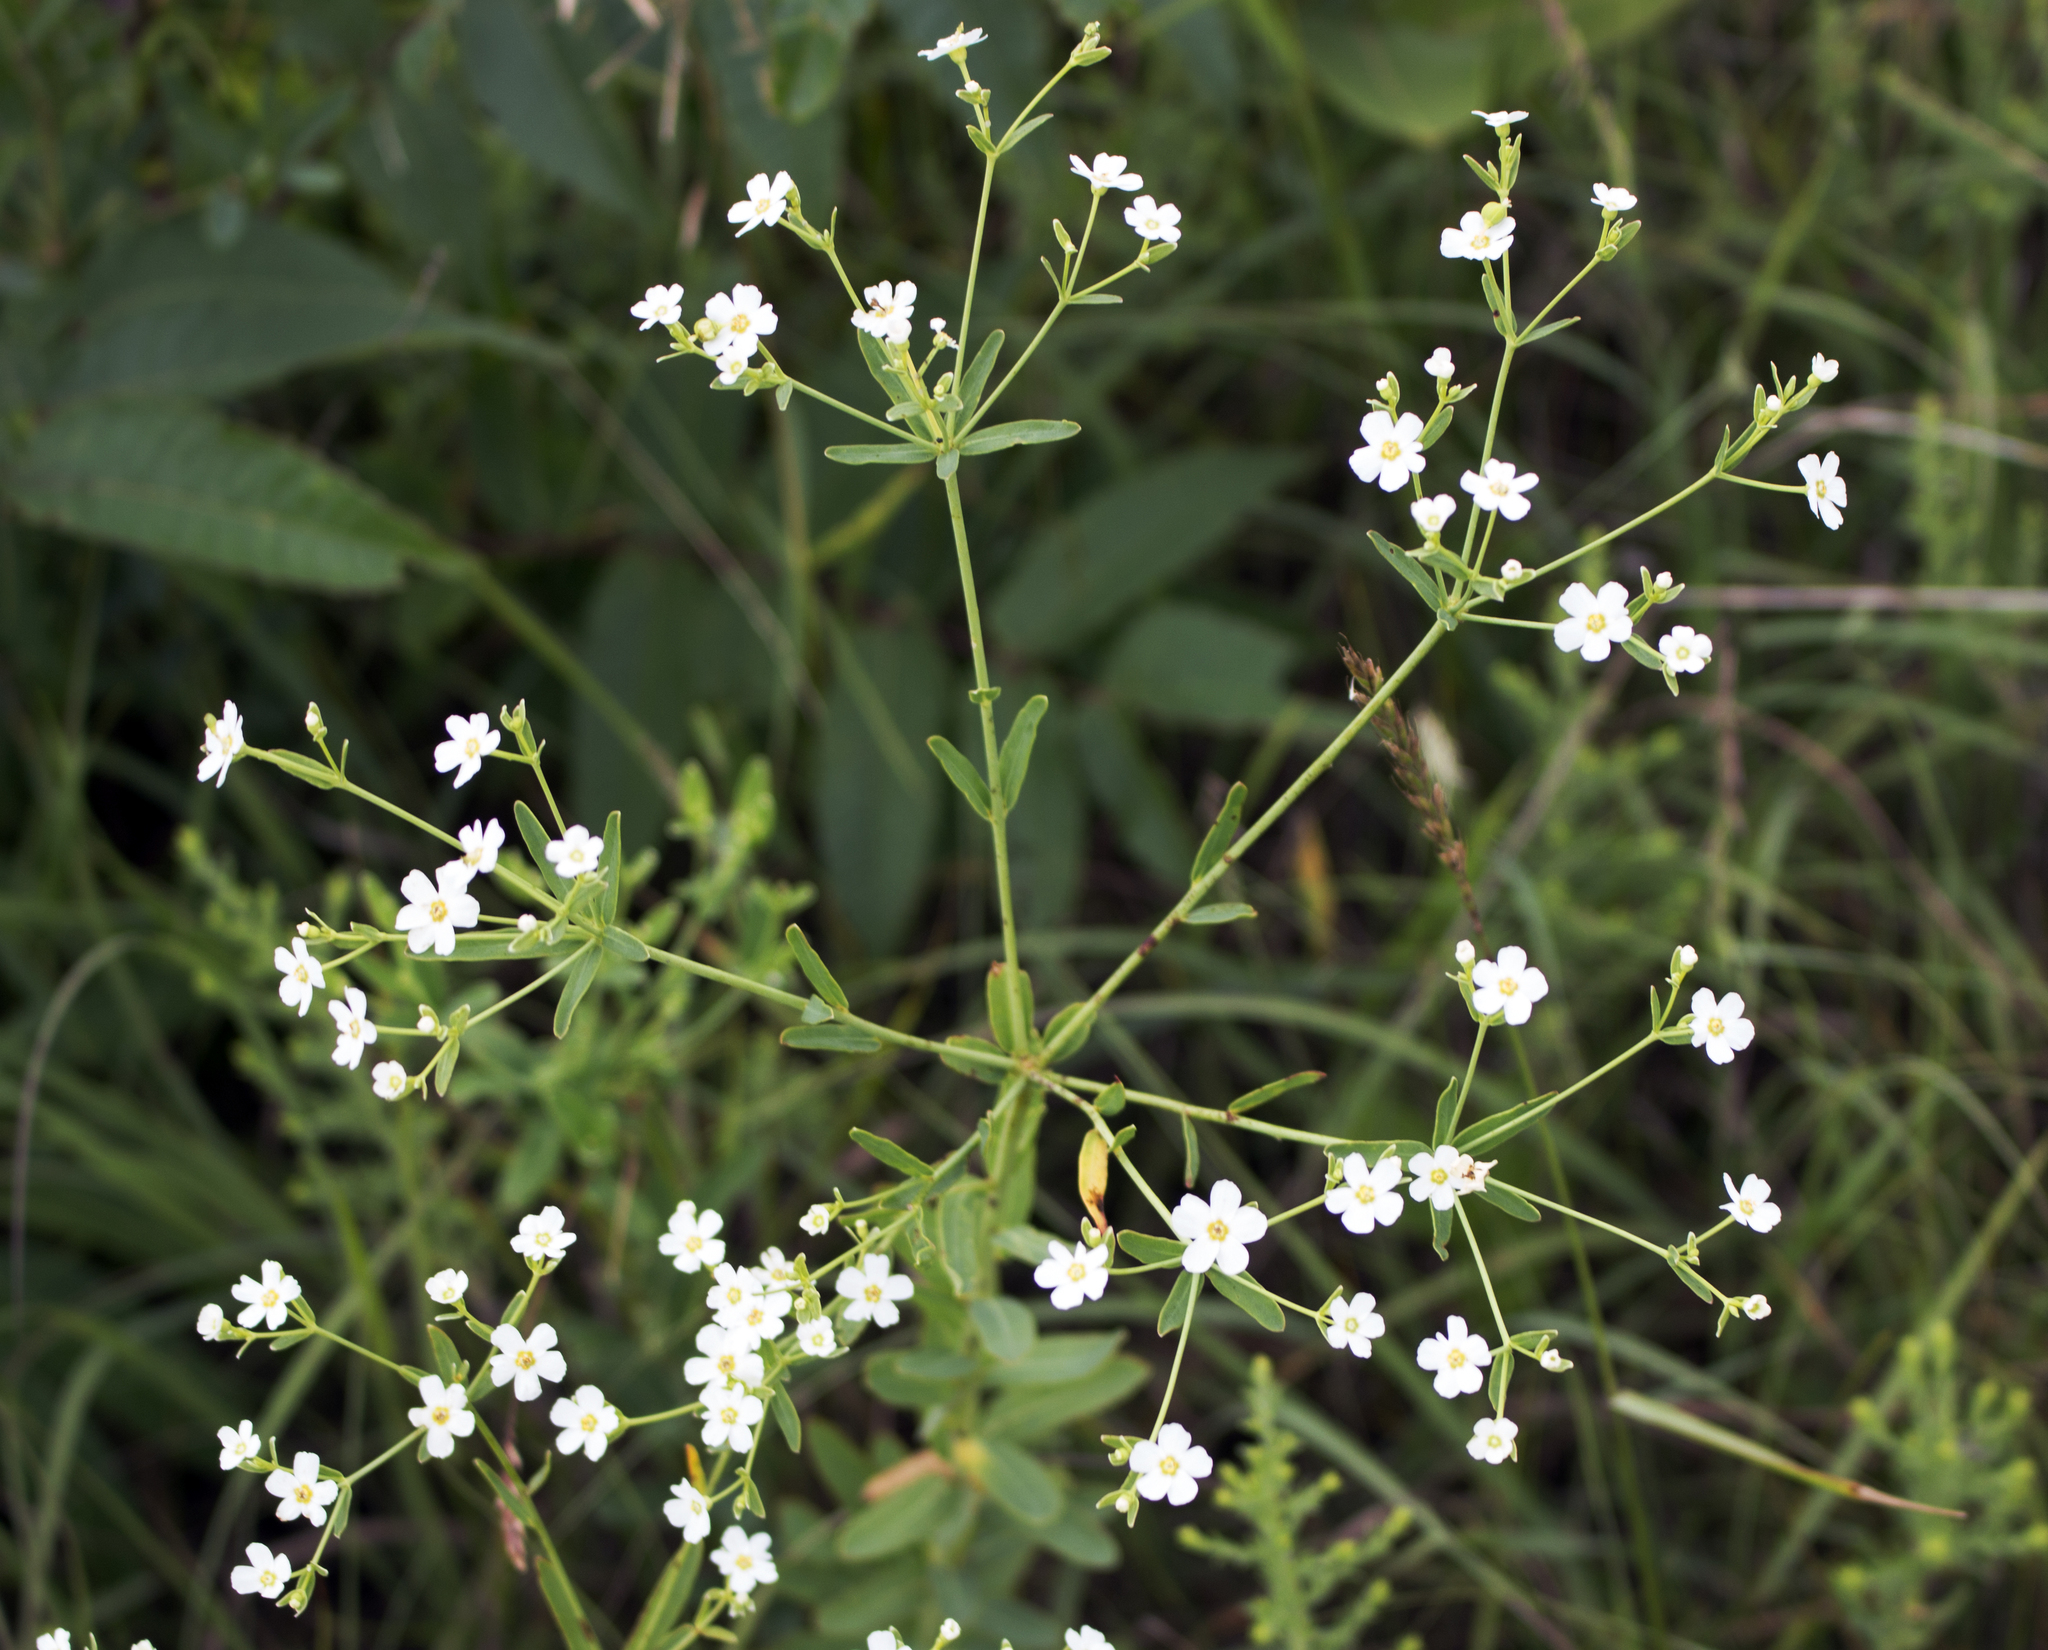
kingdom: Plantae
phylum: Tracheophyta
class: Magnoliopsida
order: Malpighiales
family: Euphorbiaceae
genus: Euphorbia
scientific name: Euphorbia corollata
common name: Flowering spurge
